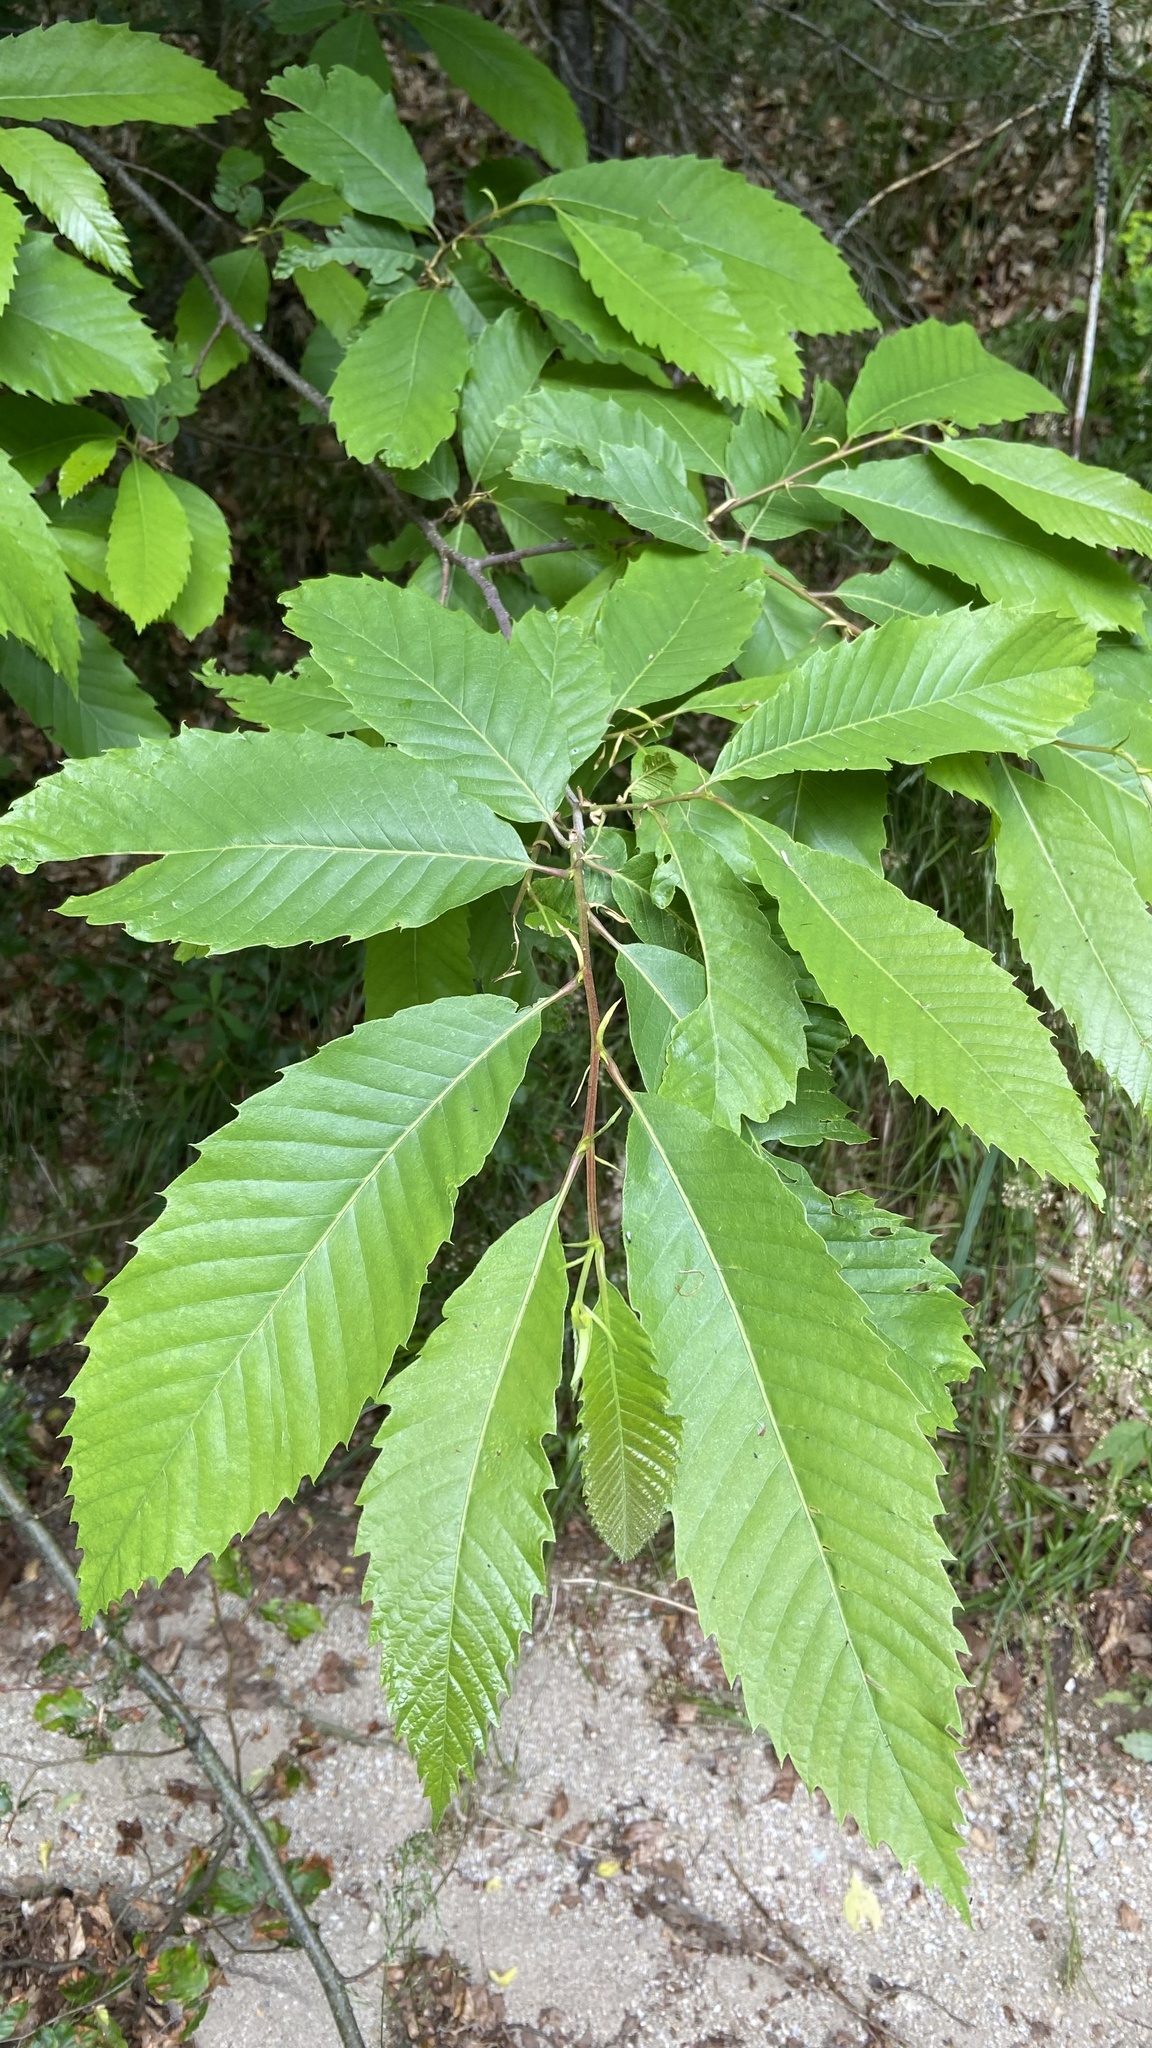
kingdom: Plantae
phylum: Tracheophyta
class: Magnoliopsida
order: Fagales
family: Fagaceae
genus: Castanea
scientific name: Castanea sativa
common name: Sweet chestnut
